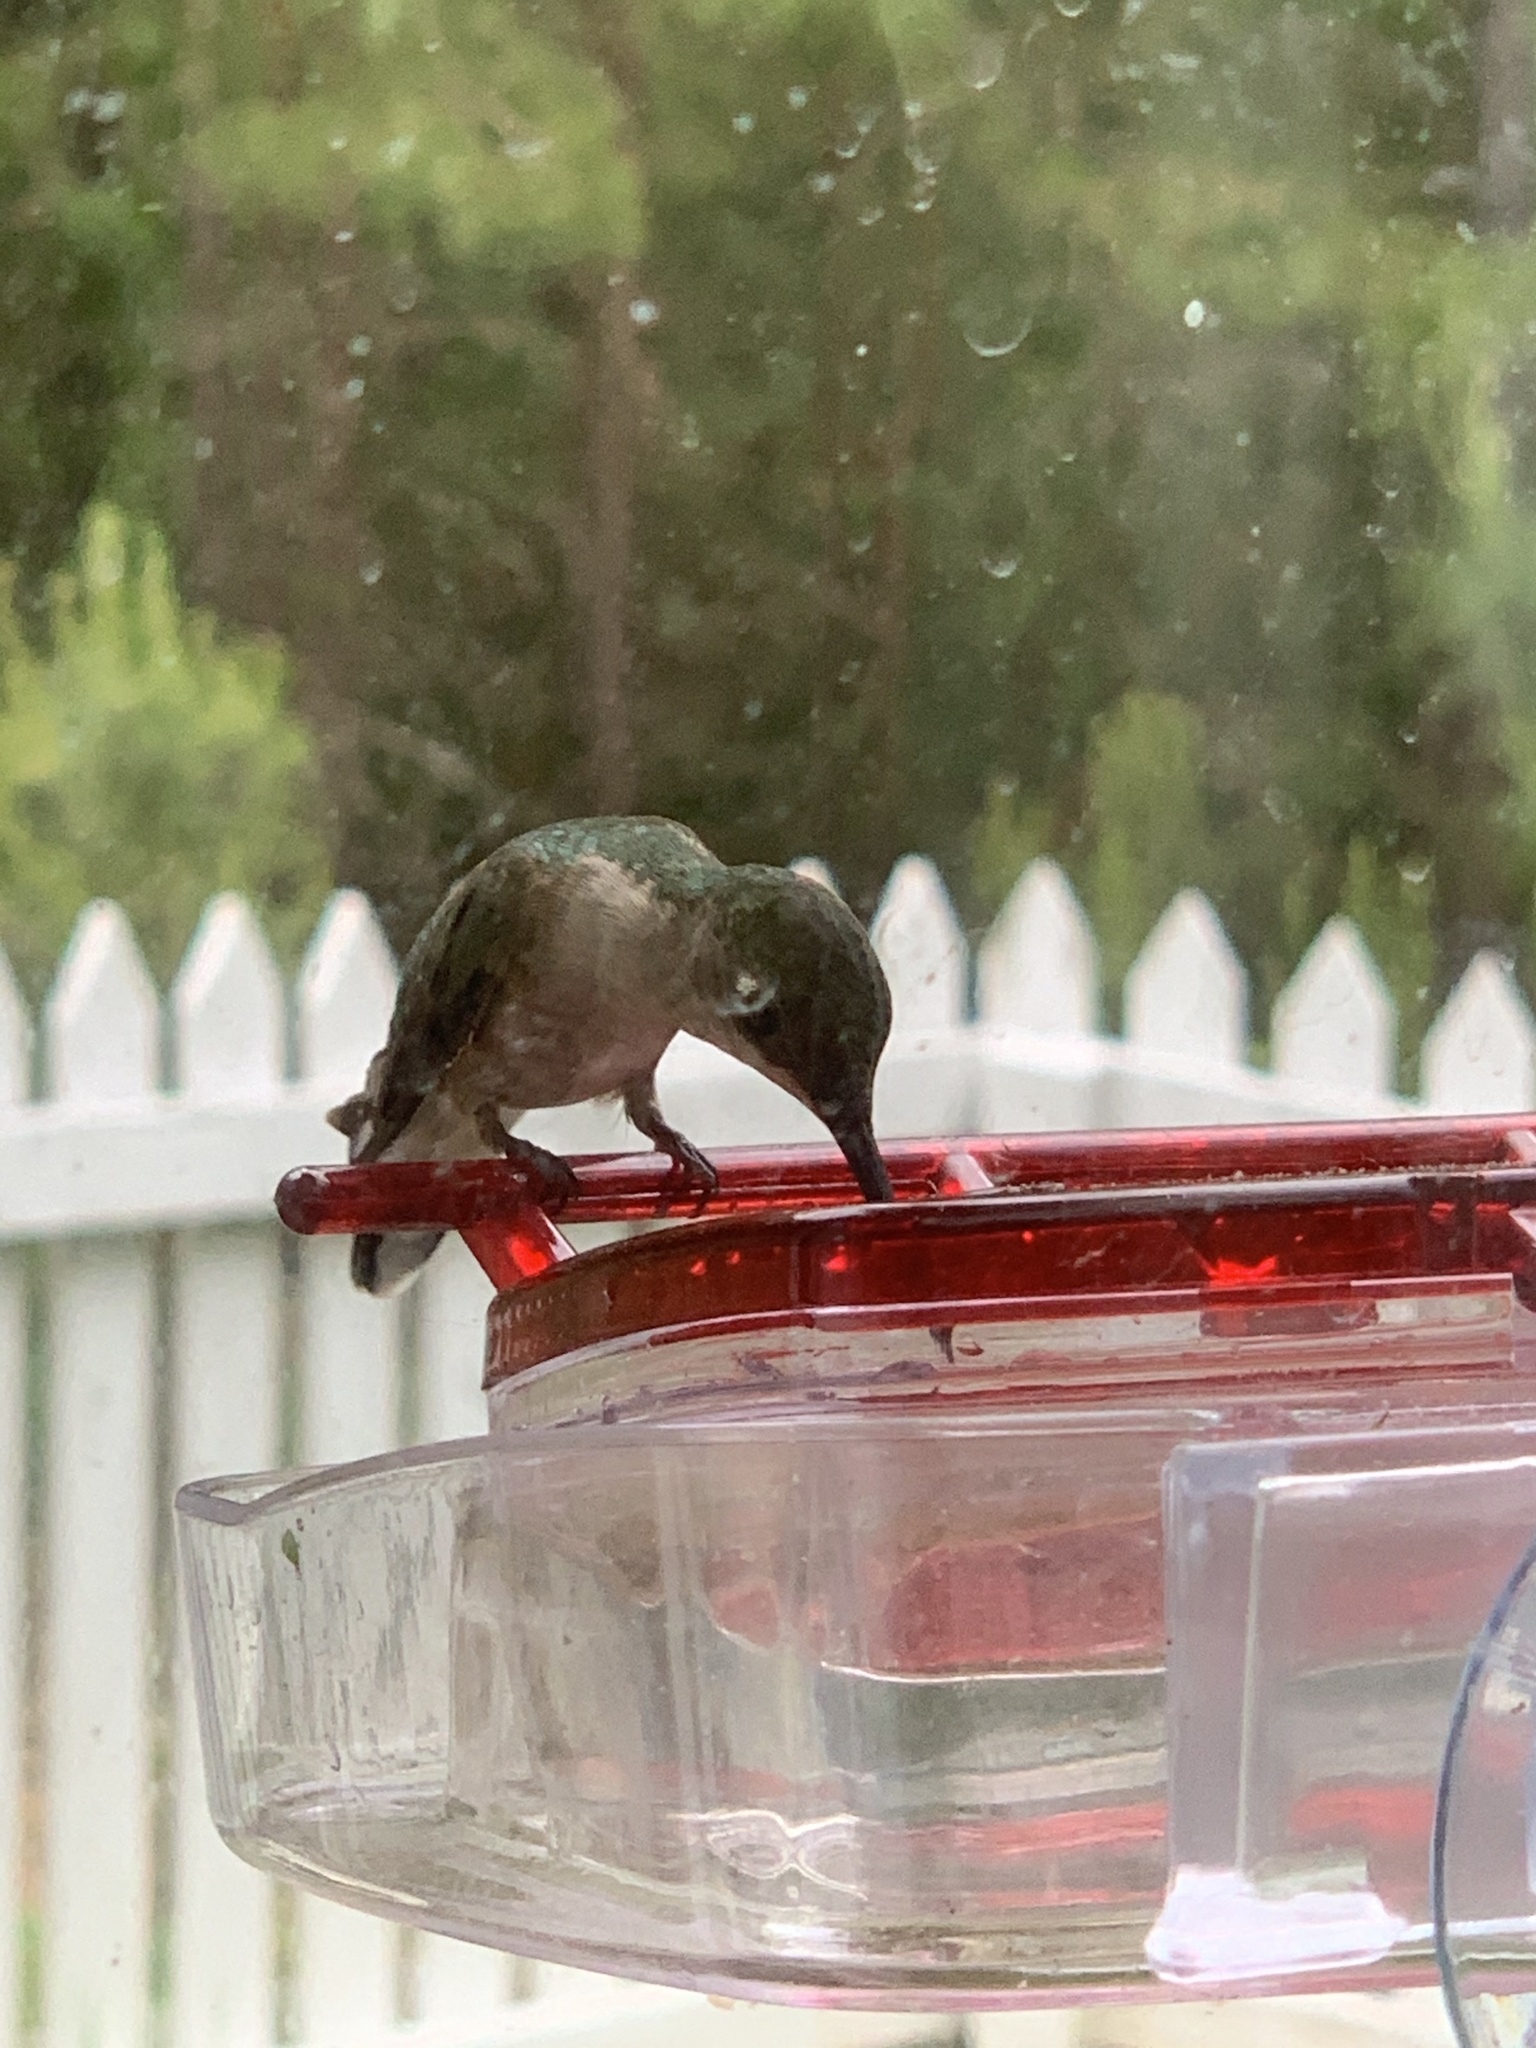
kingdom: Animalia
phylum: Chordata
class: Aves
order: Apodiformes
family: Trochilidae
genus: Archilochus
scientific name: Archilochus colubris
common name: Ruby-throated hummingbird
